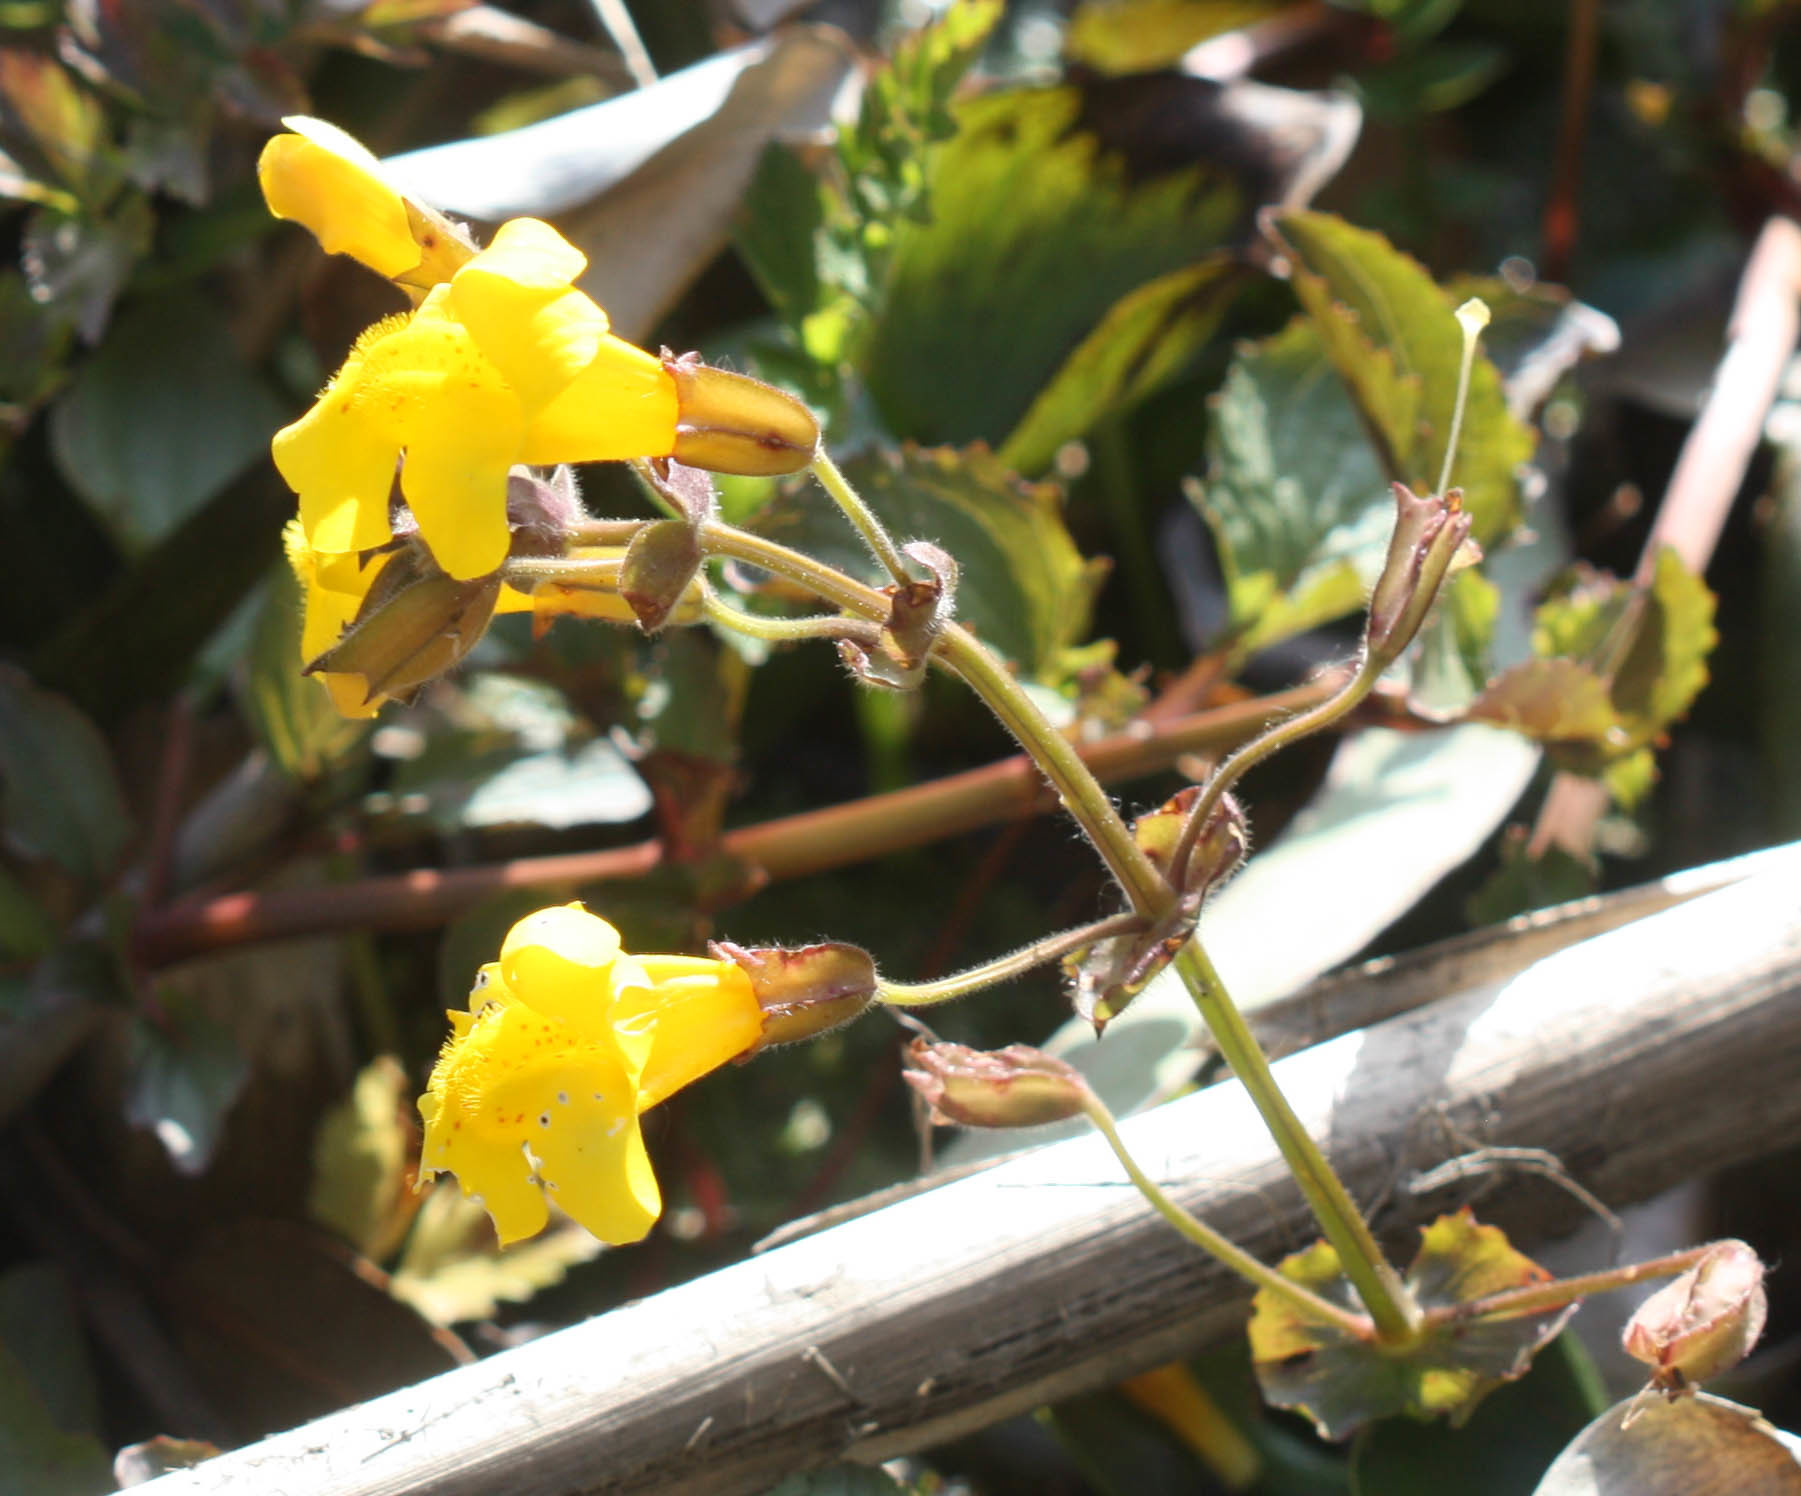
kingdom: Plantae
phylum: Tracheophyta
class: Magnoliopsida
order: Lamiales
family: Phrymaceae
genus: Erythranthe
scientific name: Erythranthe guttata
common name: Monkeyflower
